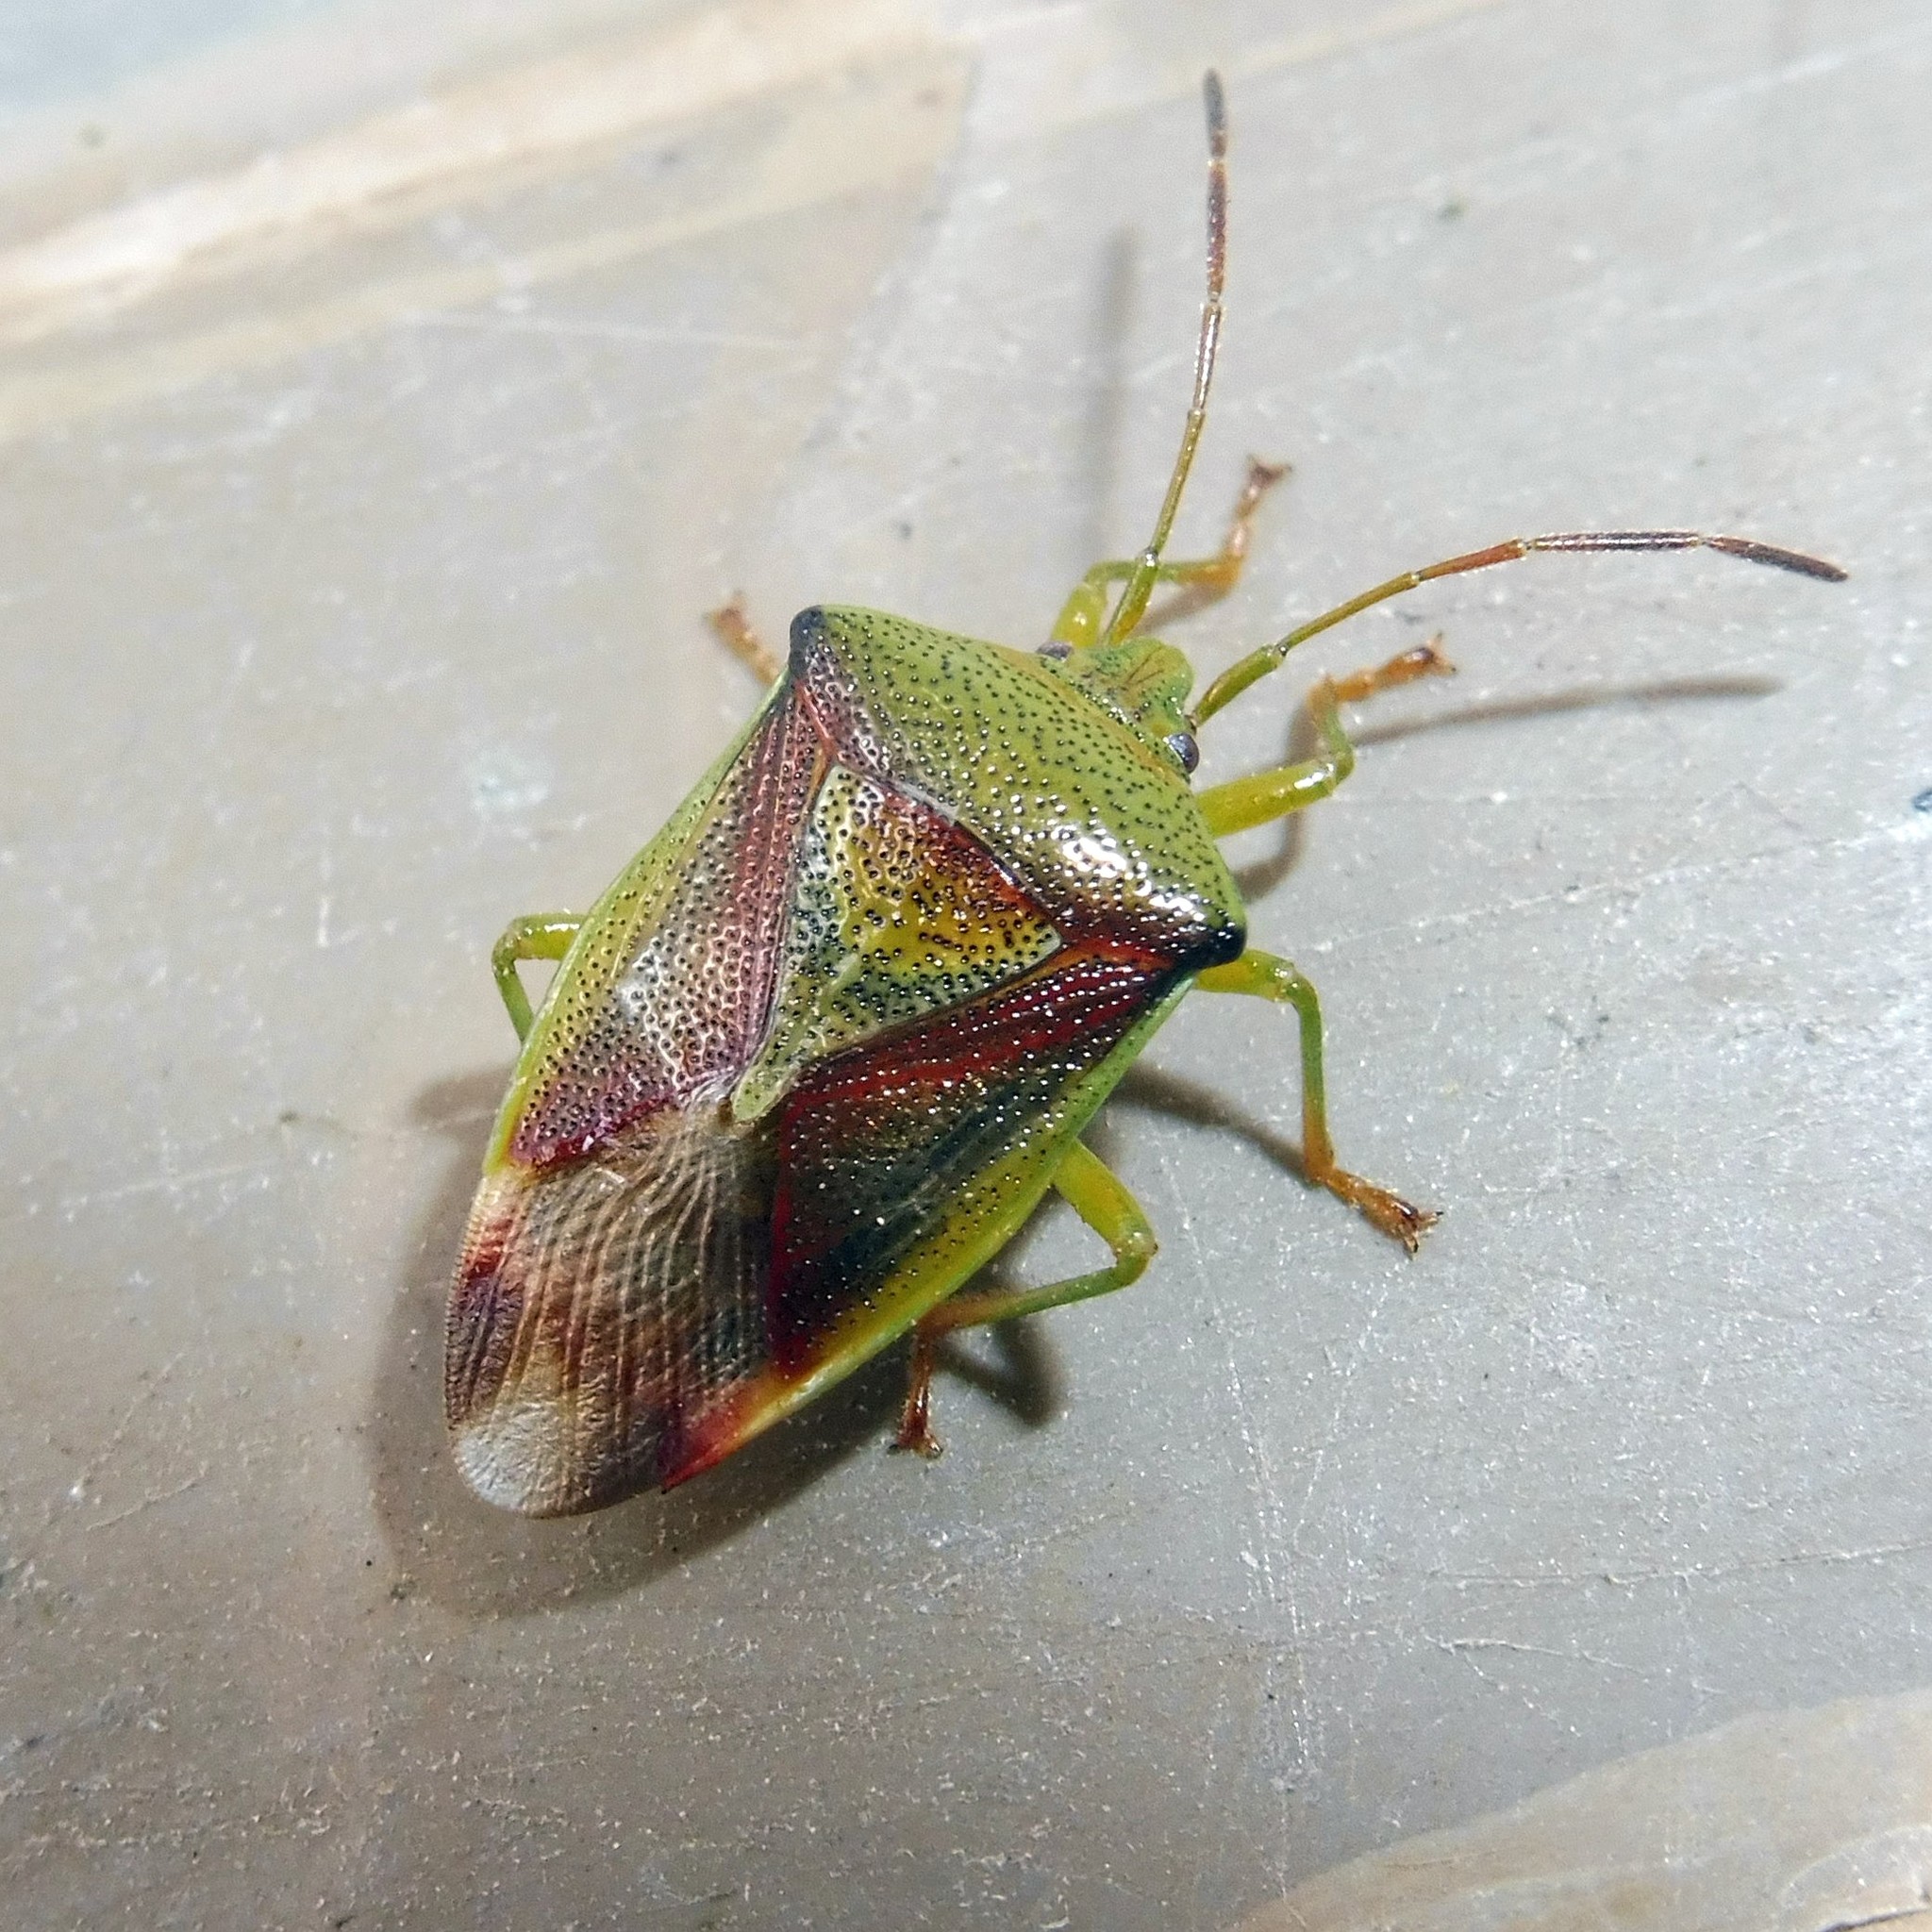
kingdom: Animalia
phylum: Arthropoda
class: Insecta
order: Hemiptera
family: Acanthosomatidae
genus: Elasmostethus
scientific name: Elasmostethus interstinctus
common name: Birch shieldbug
